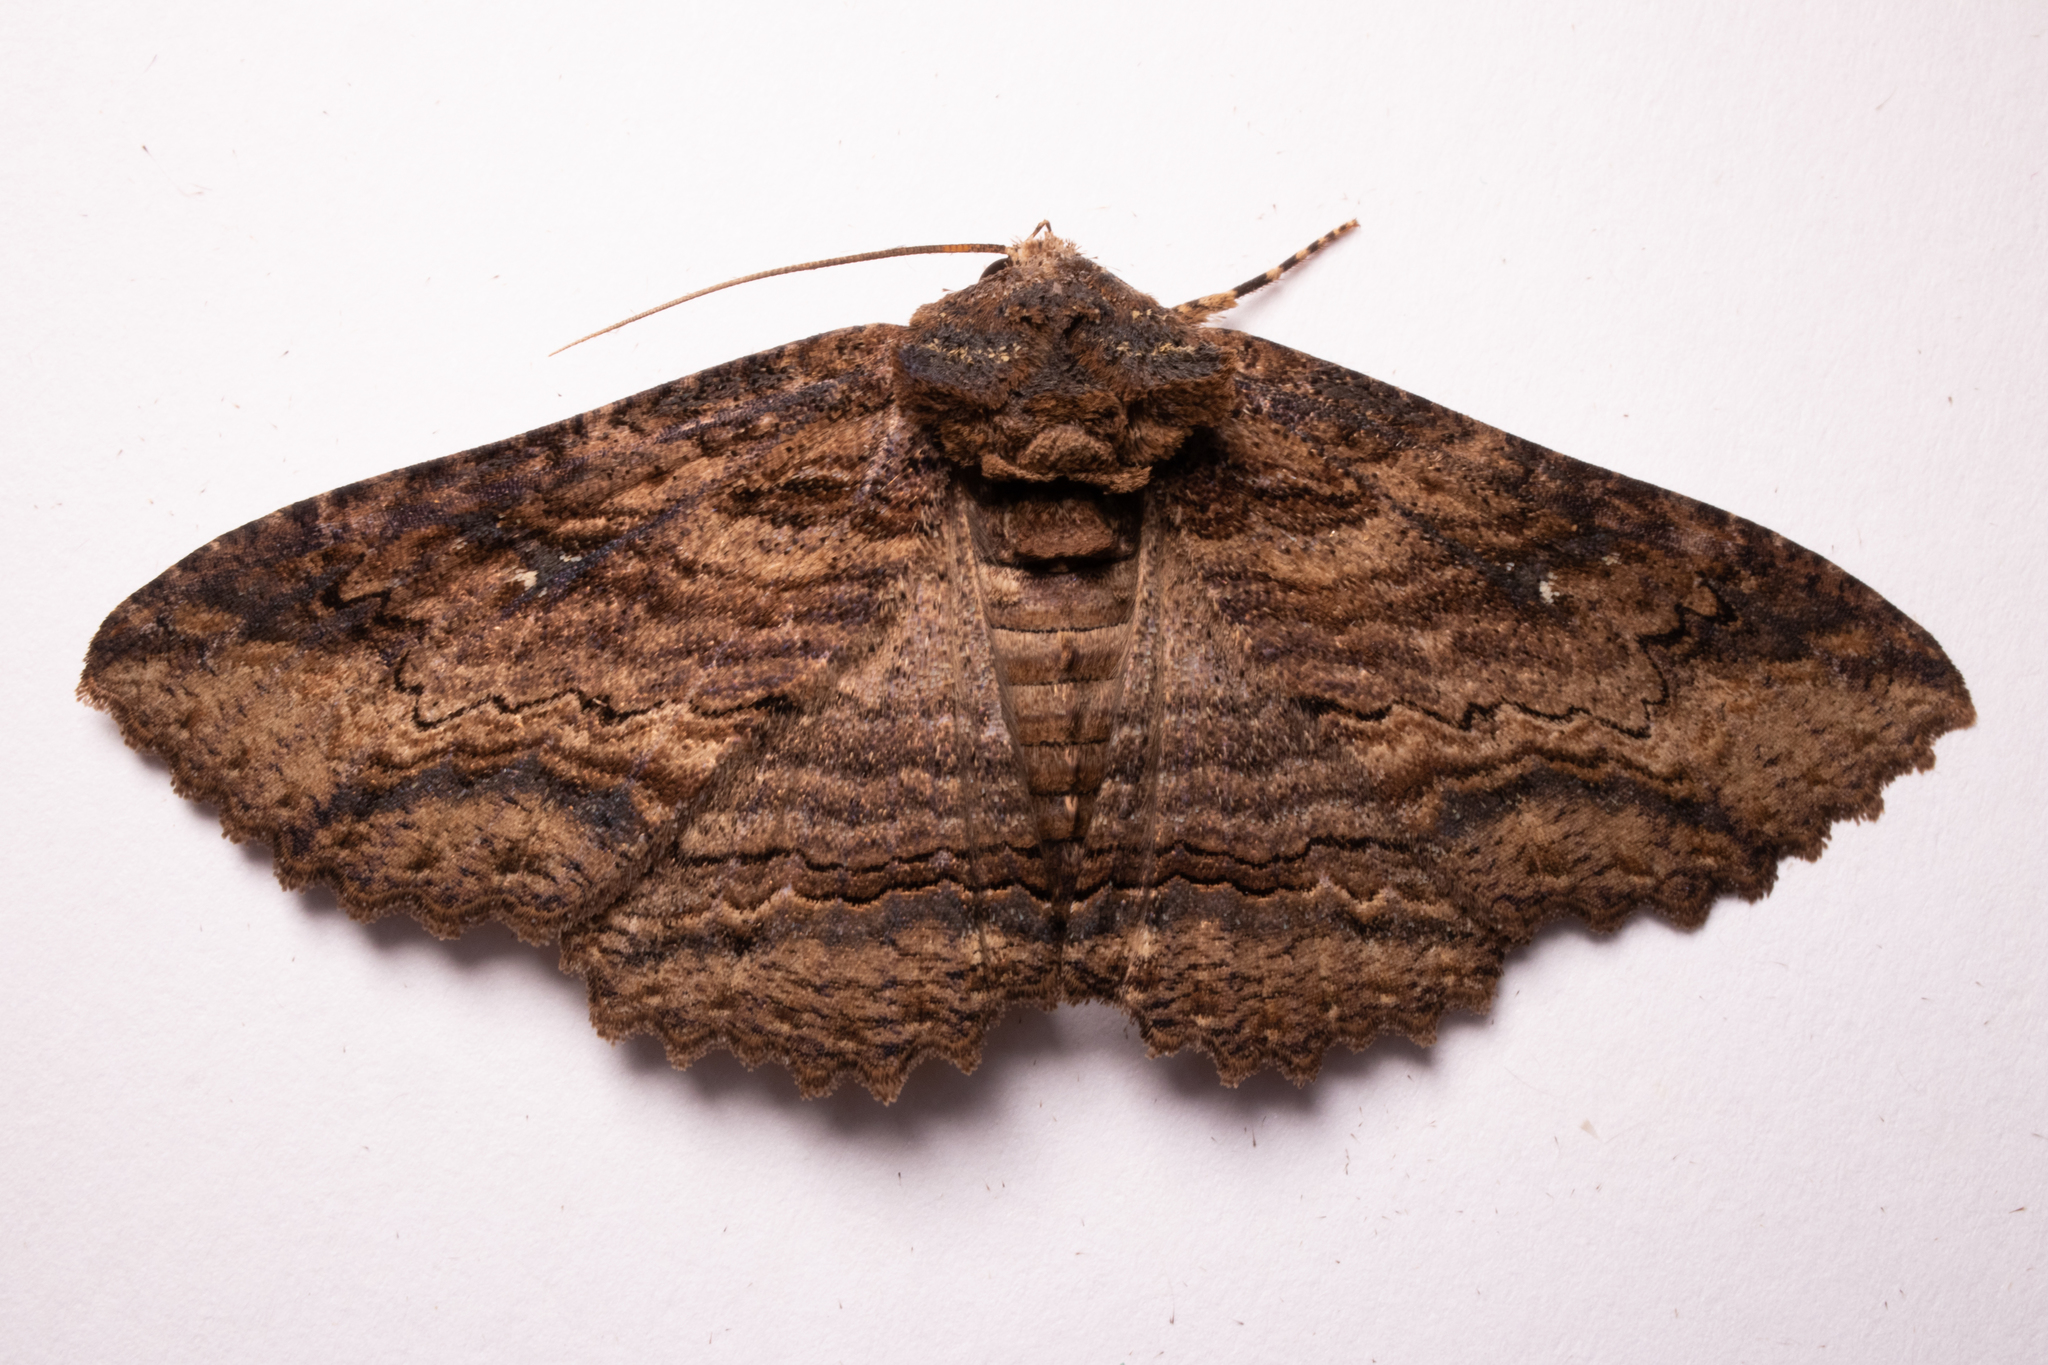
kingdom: Animalia
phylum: Arthropoda
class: Insecta
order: Lepidoptera
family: Erebidae
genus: Zale
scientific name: Zale lunata
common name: Lunate zale moth
